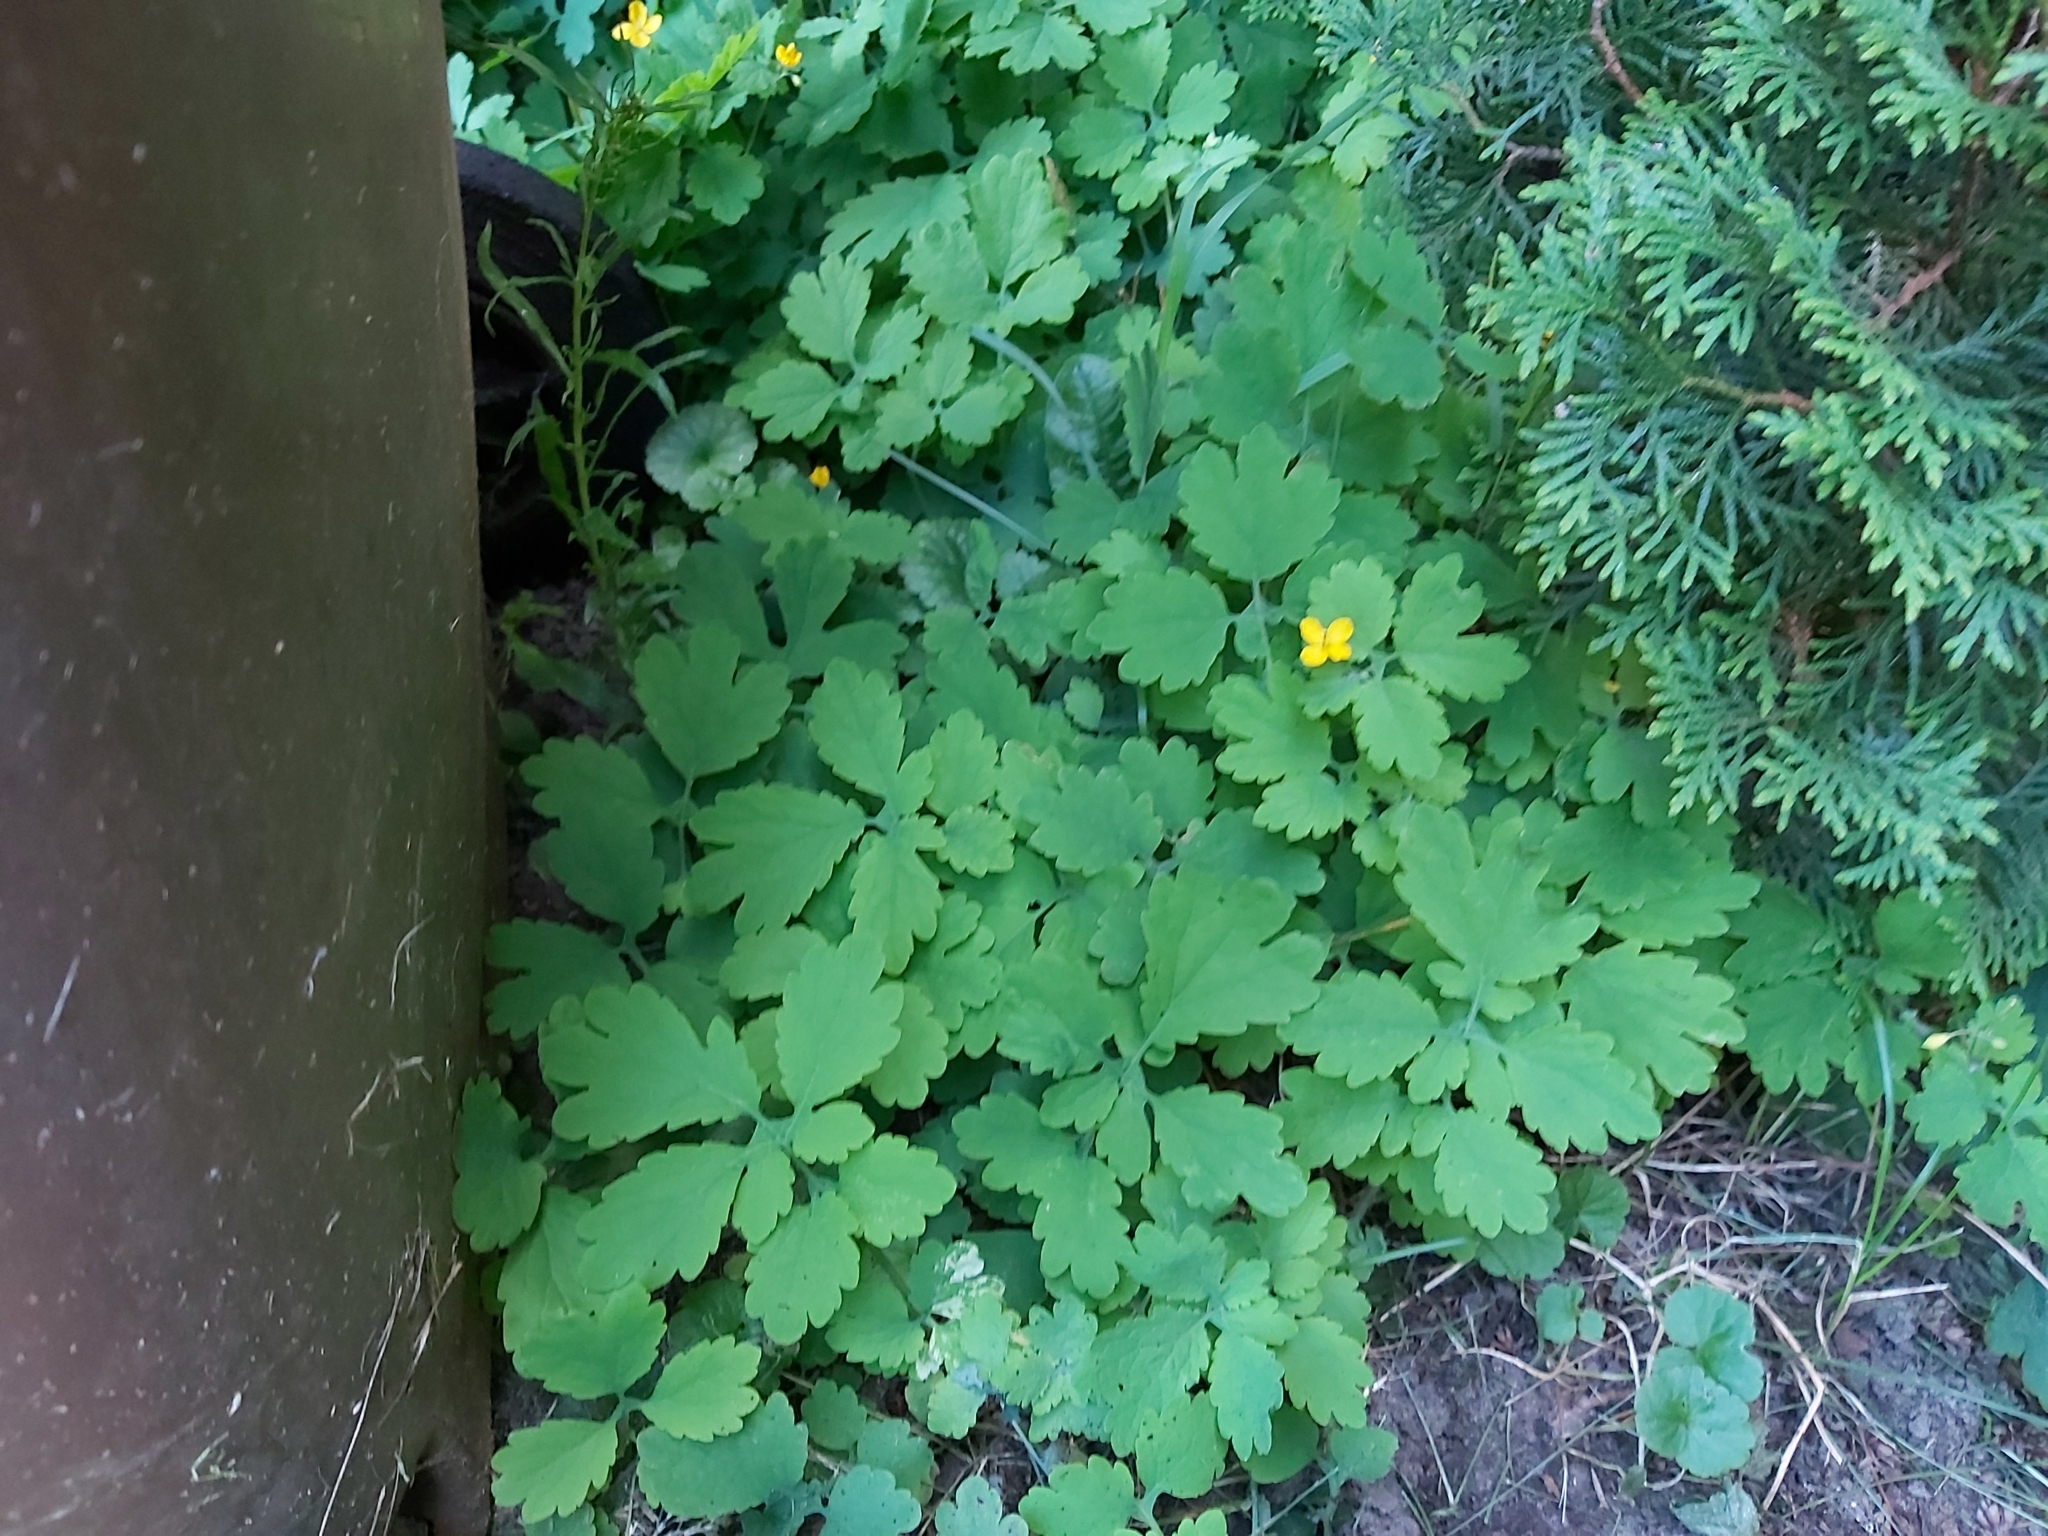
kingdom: Plantae
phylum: Tracheophyta
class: Magnoliopsida
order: Ranunculales
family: Papaveraceae
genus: Chelidonium
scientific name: Chelidonium majus
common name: Greater celandine
